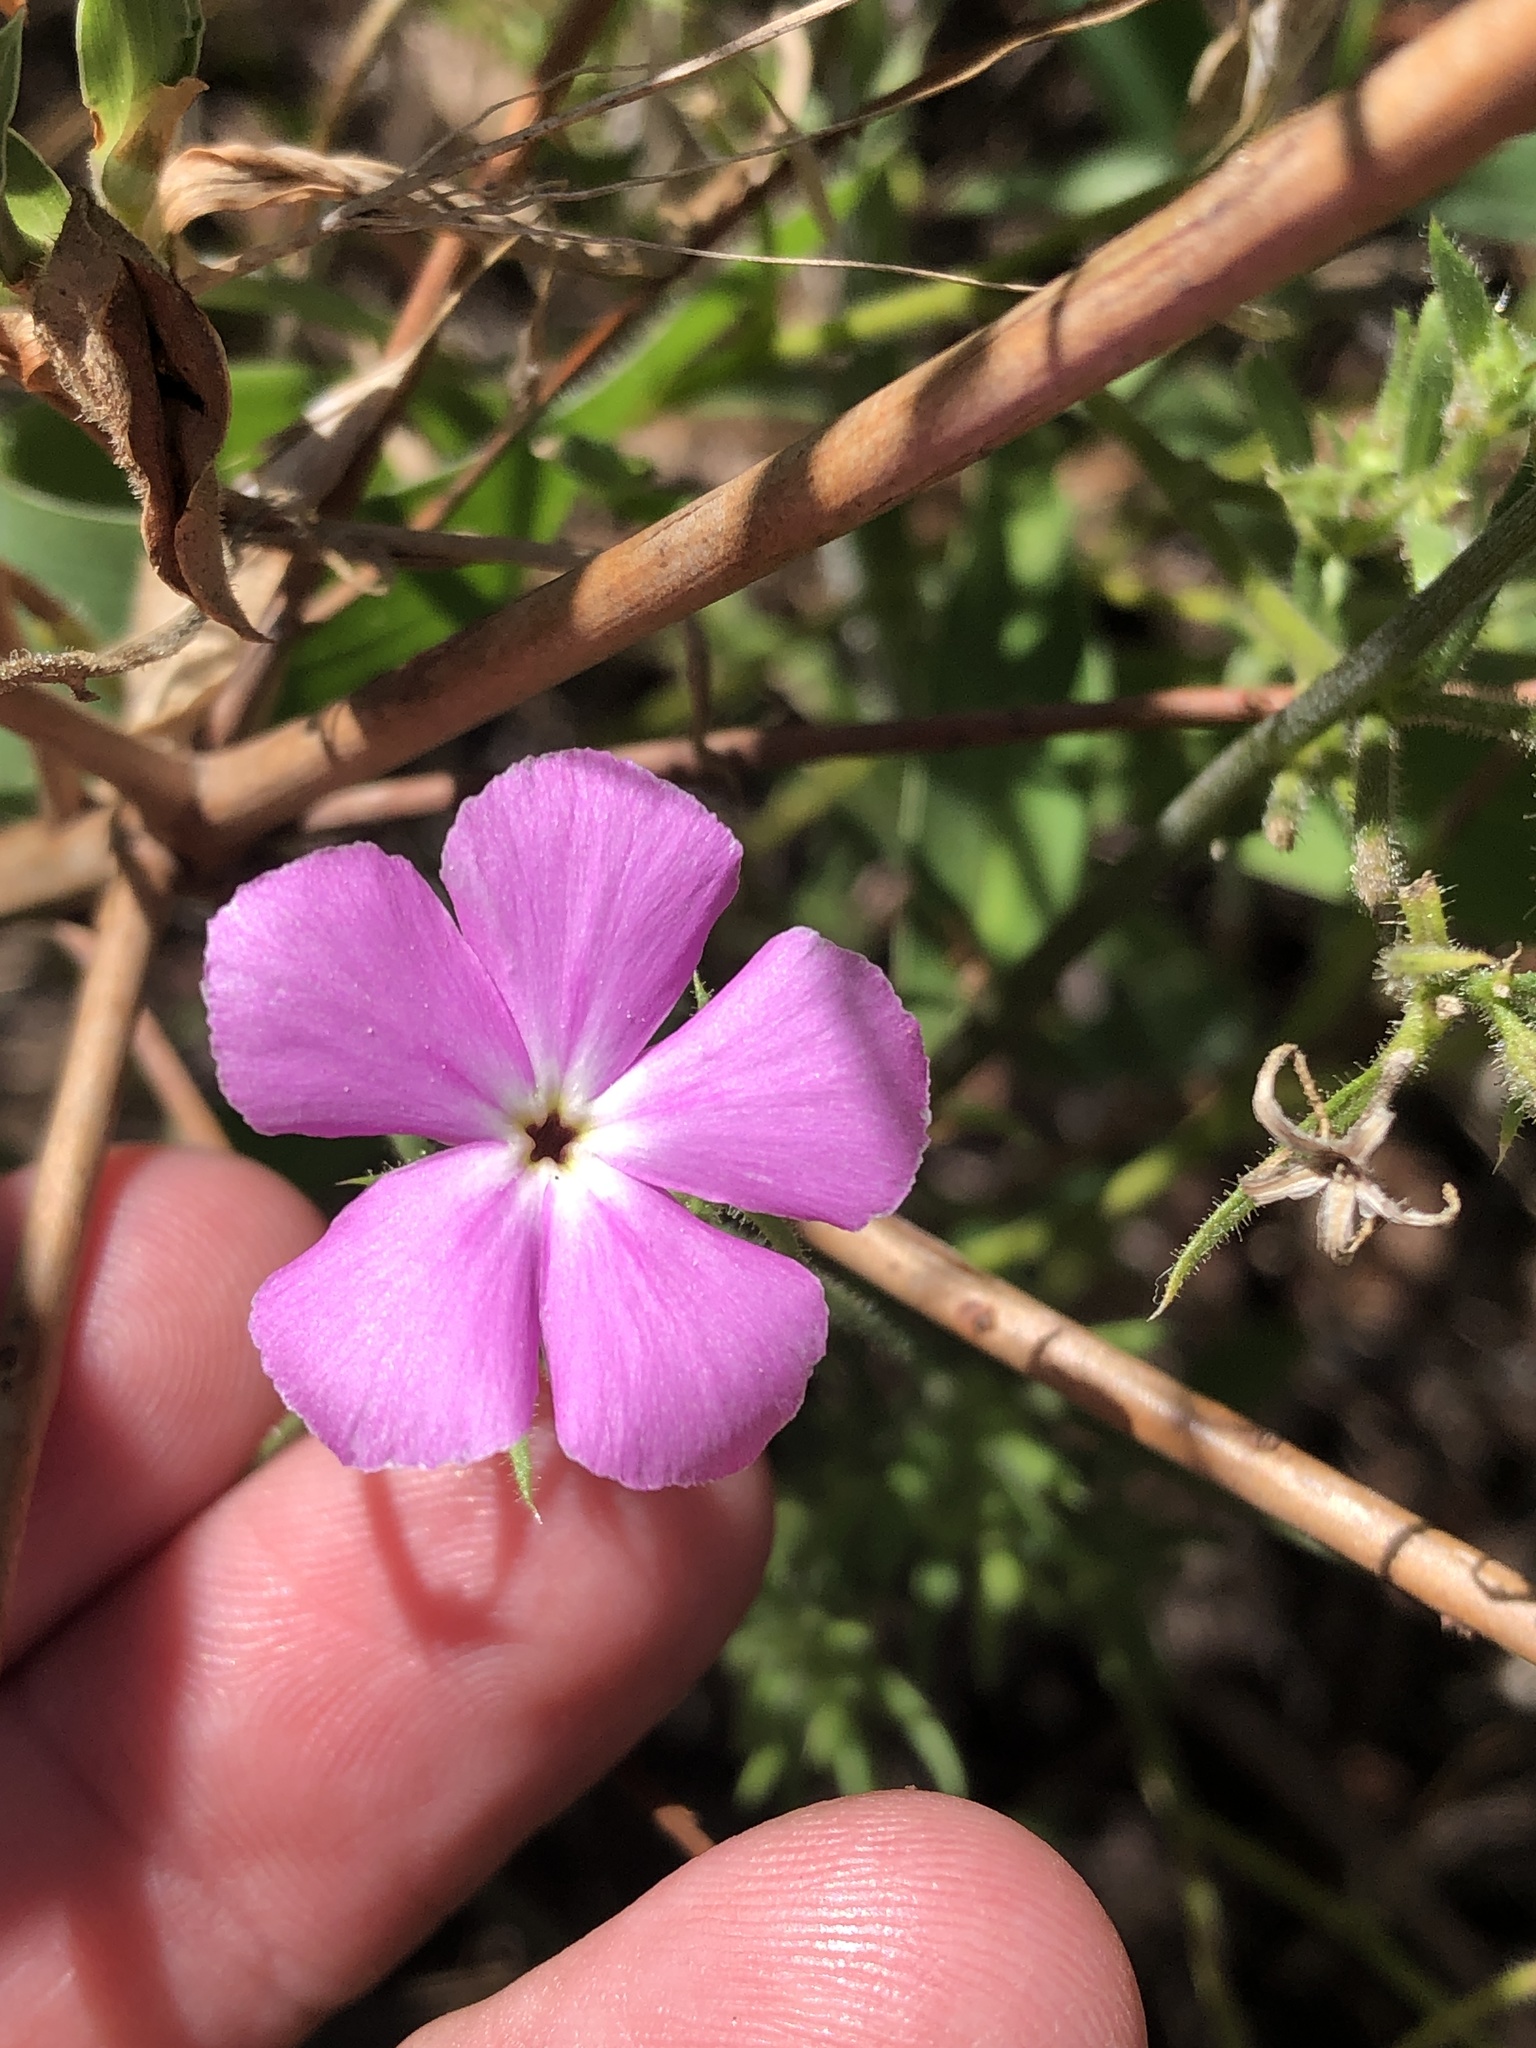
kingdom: Plantae
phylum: Tracheophyta
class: Magnoliopsida
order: Ericales
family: Polemoniaceae
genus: Phlox
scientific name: Phlox drummondii
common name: Drummond's phlox
